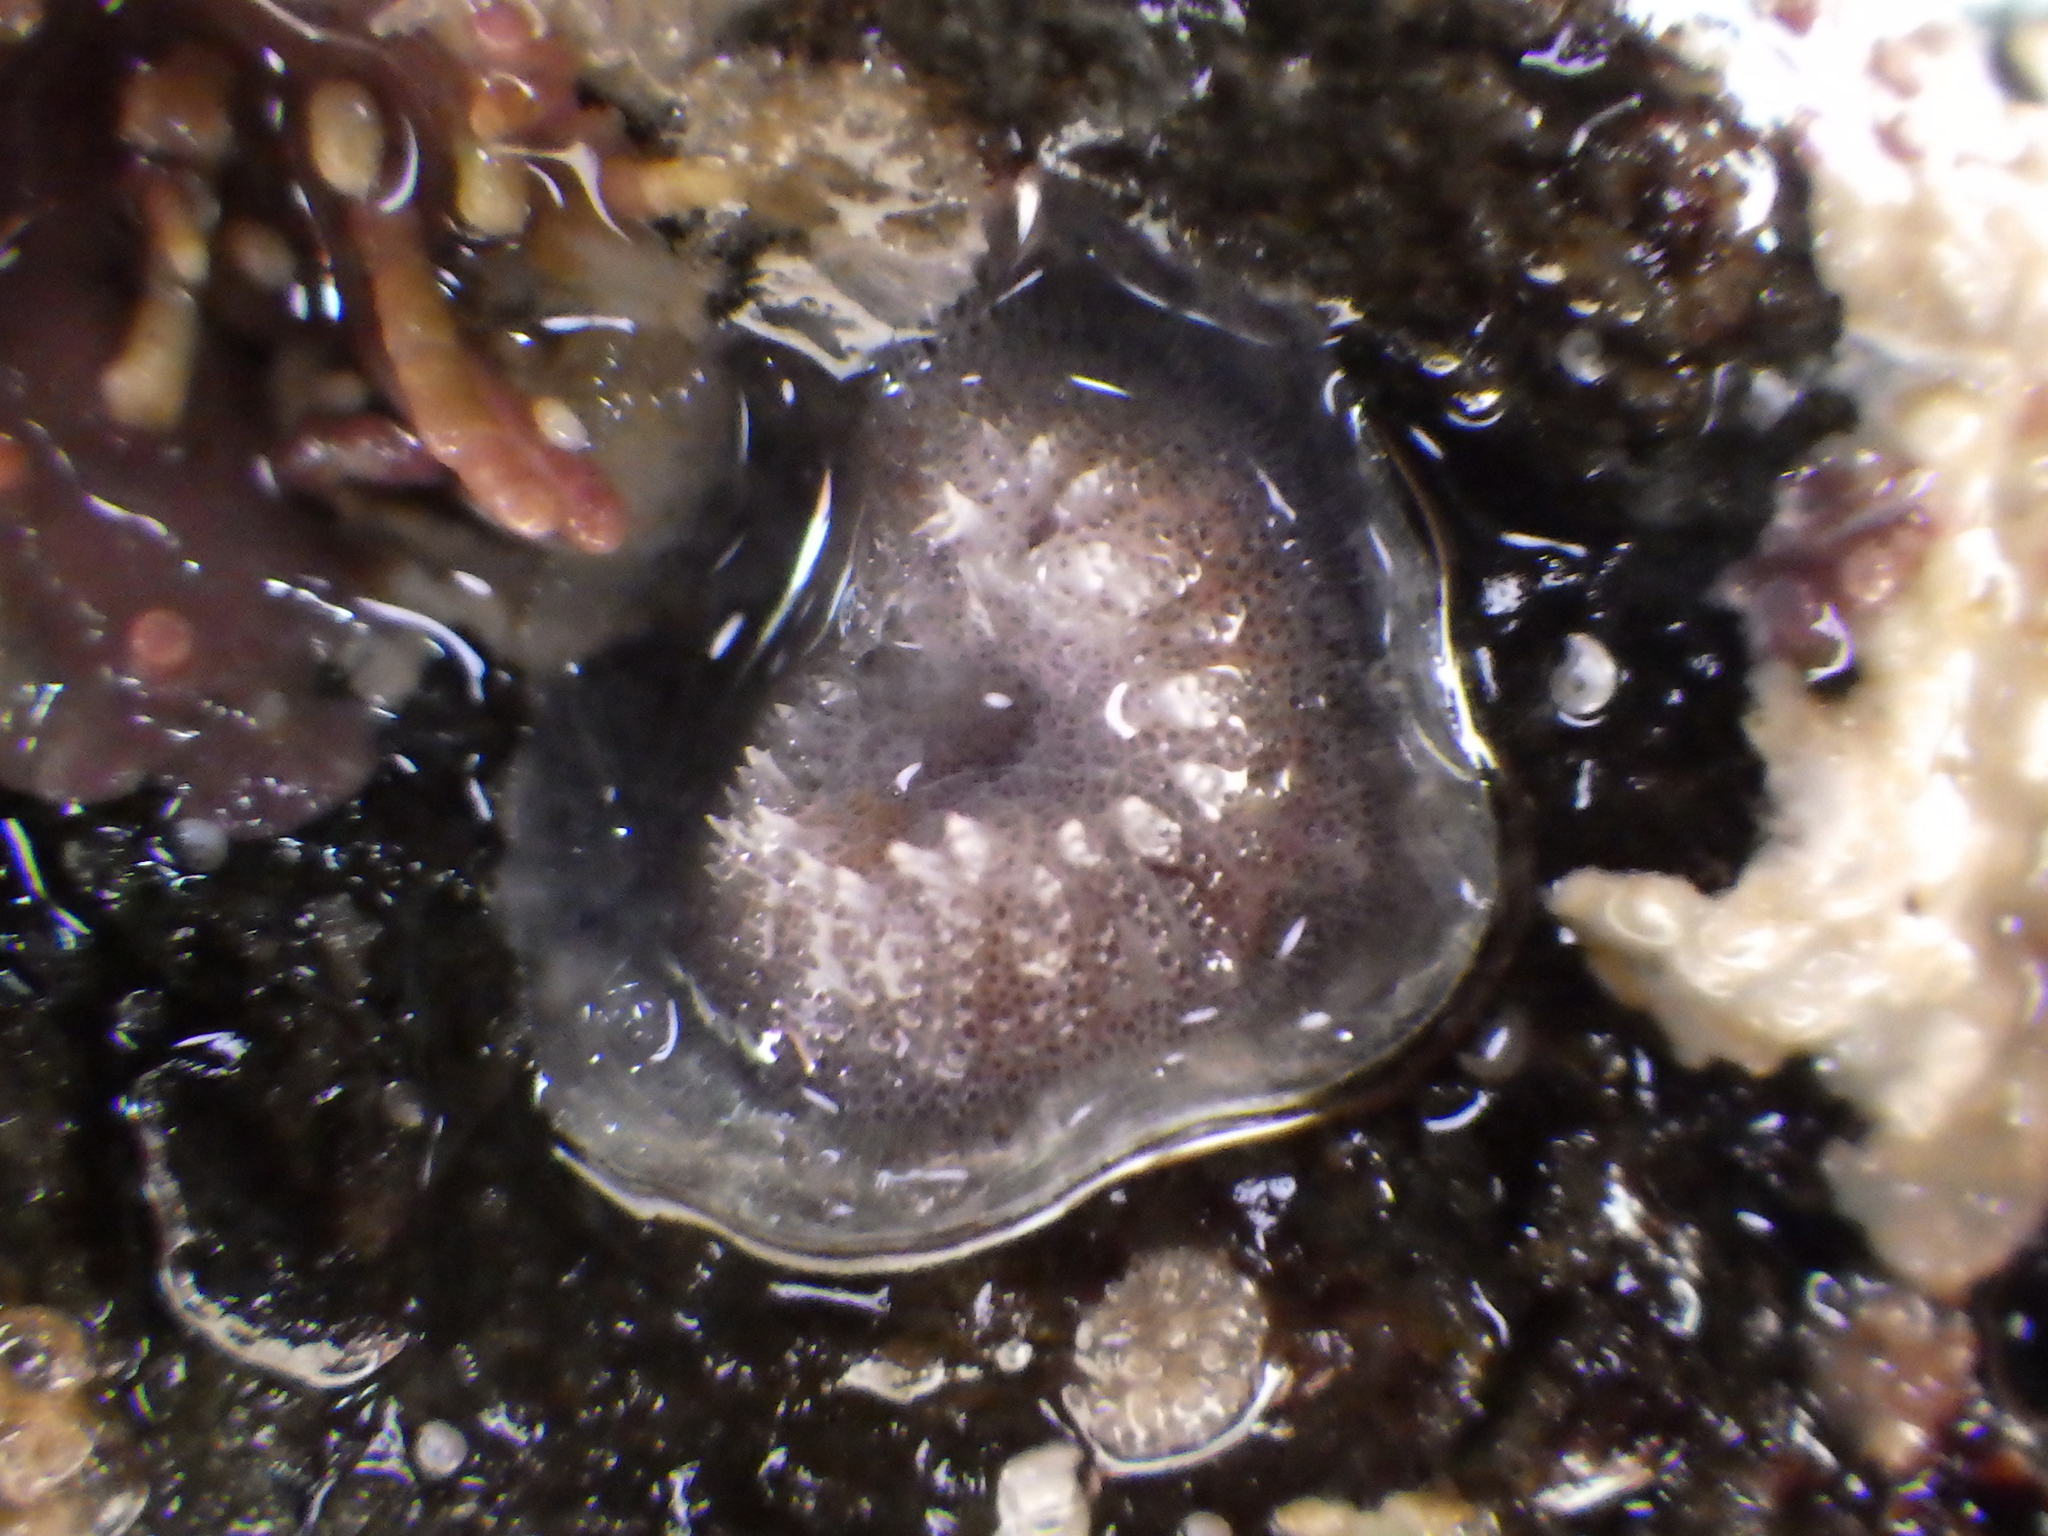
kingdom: Animalia
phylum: Bryozoa
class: Stenolaemata
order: Cyclostomatida
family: Lichenoporidae
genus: Disporella
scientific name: Disporella novaehollandiae
